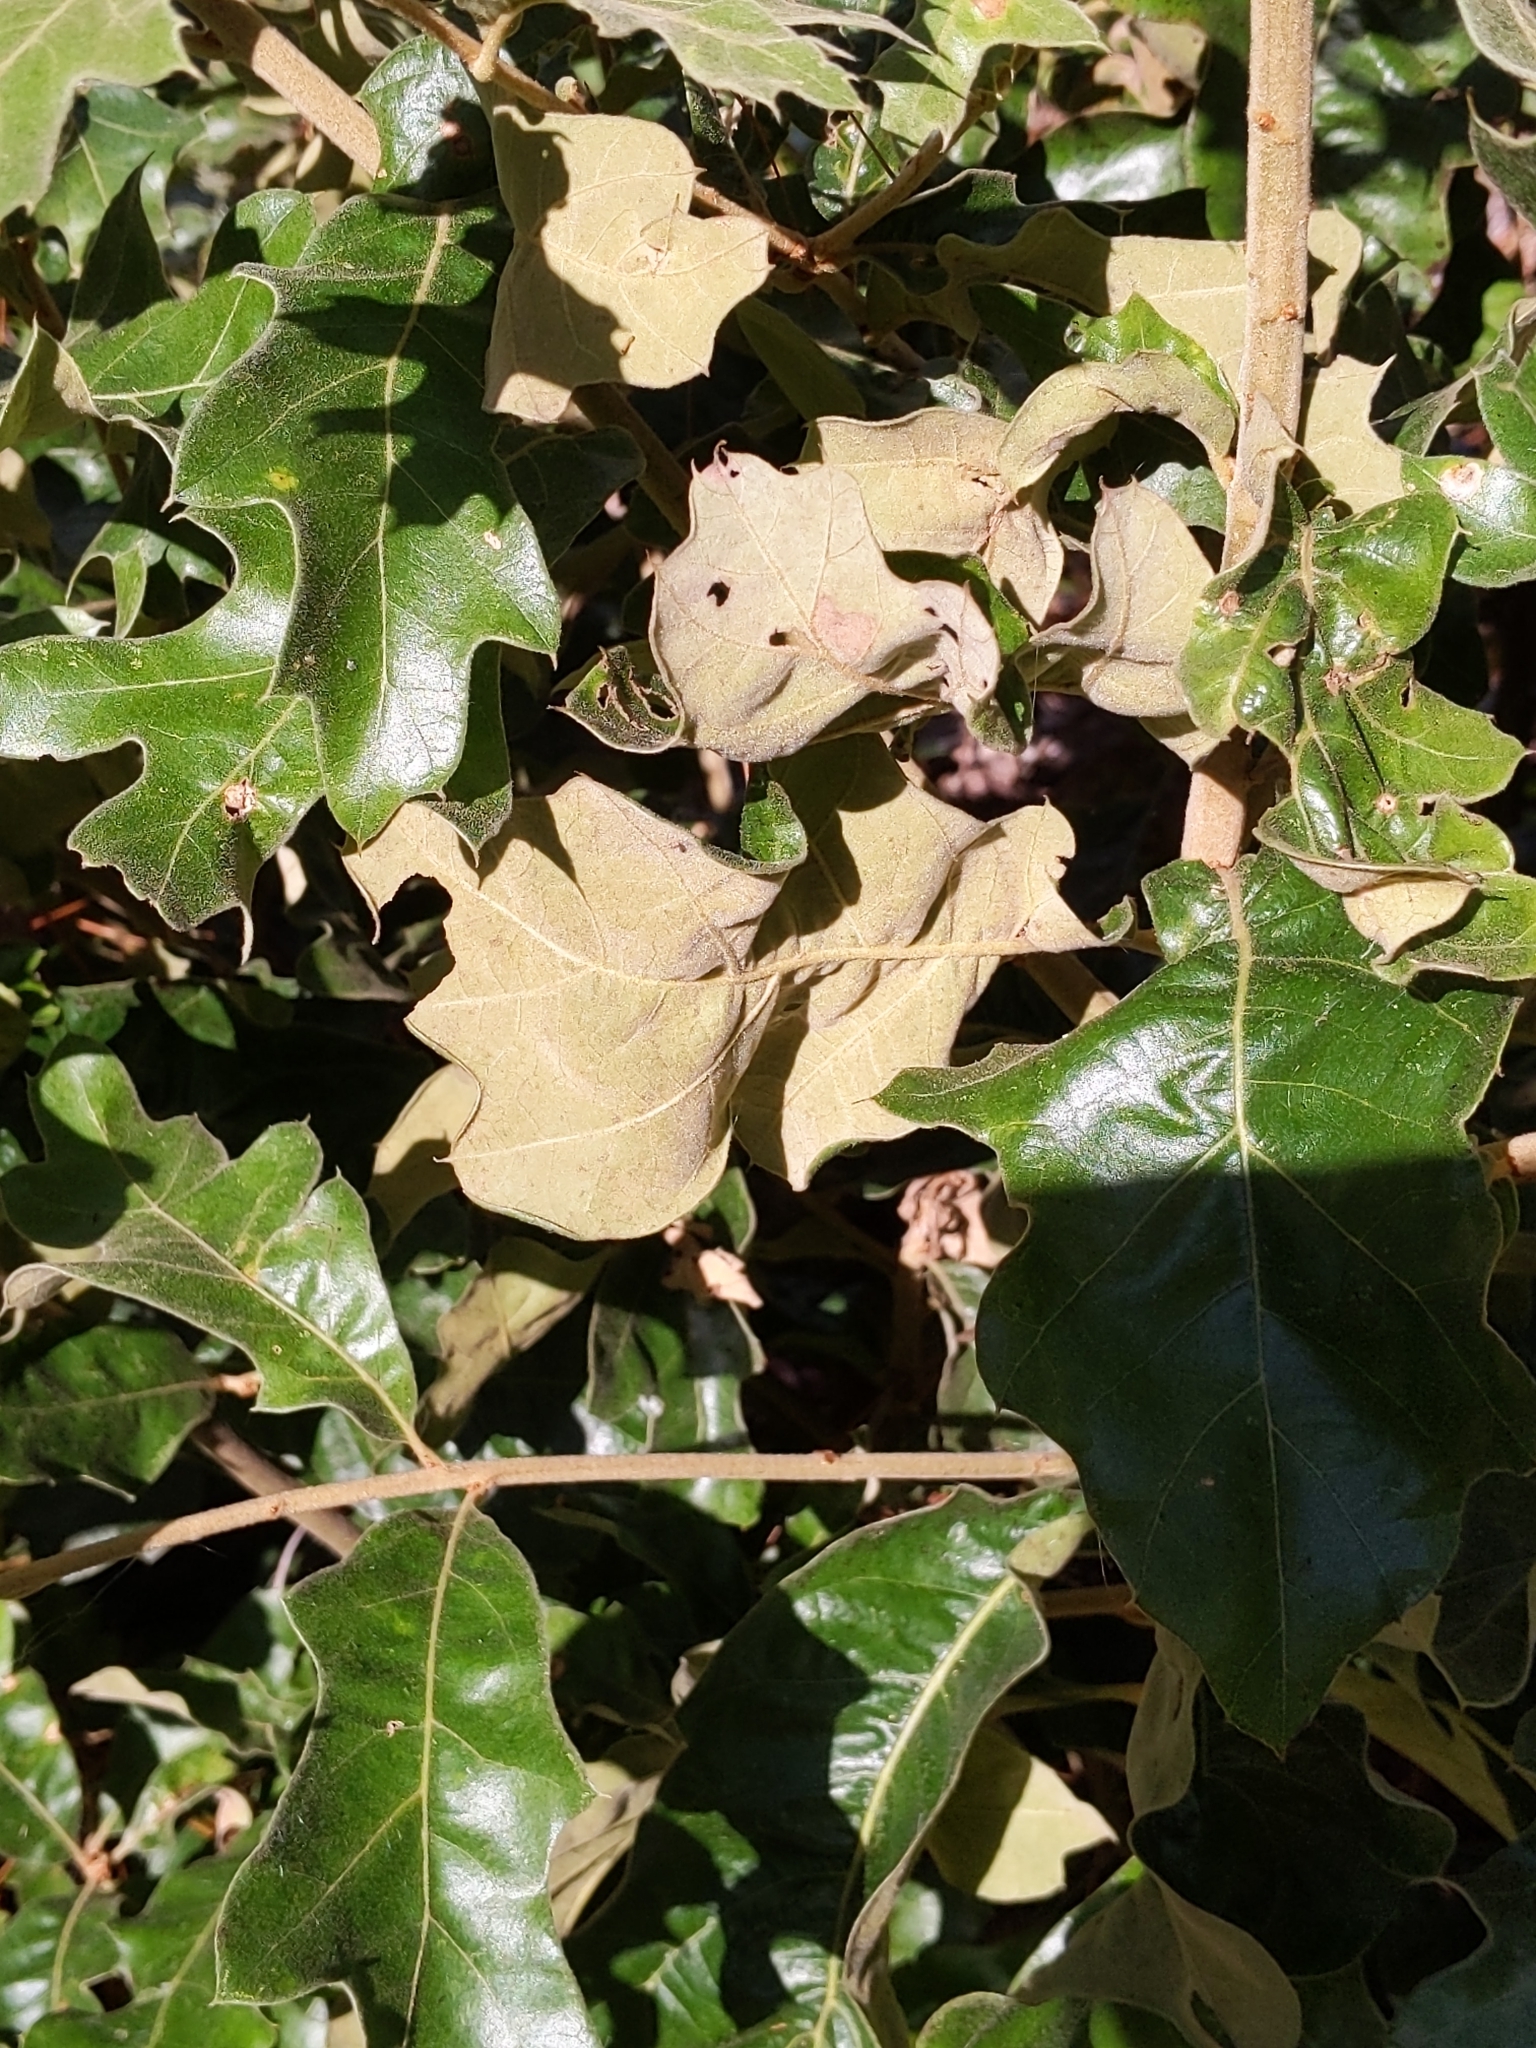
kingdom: Plantae
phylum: Tracheophyta
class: Magnoliopsida
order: Fagales
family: Fagaceae
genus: Quercus
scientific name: Quercus velutina
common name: Black oak
